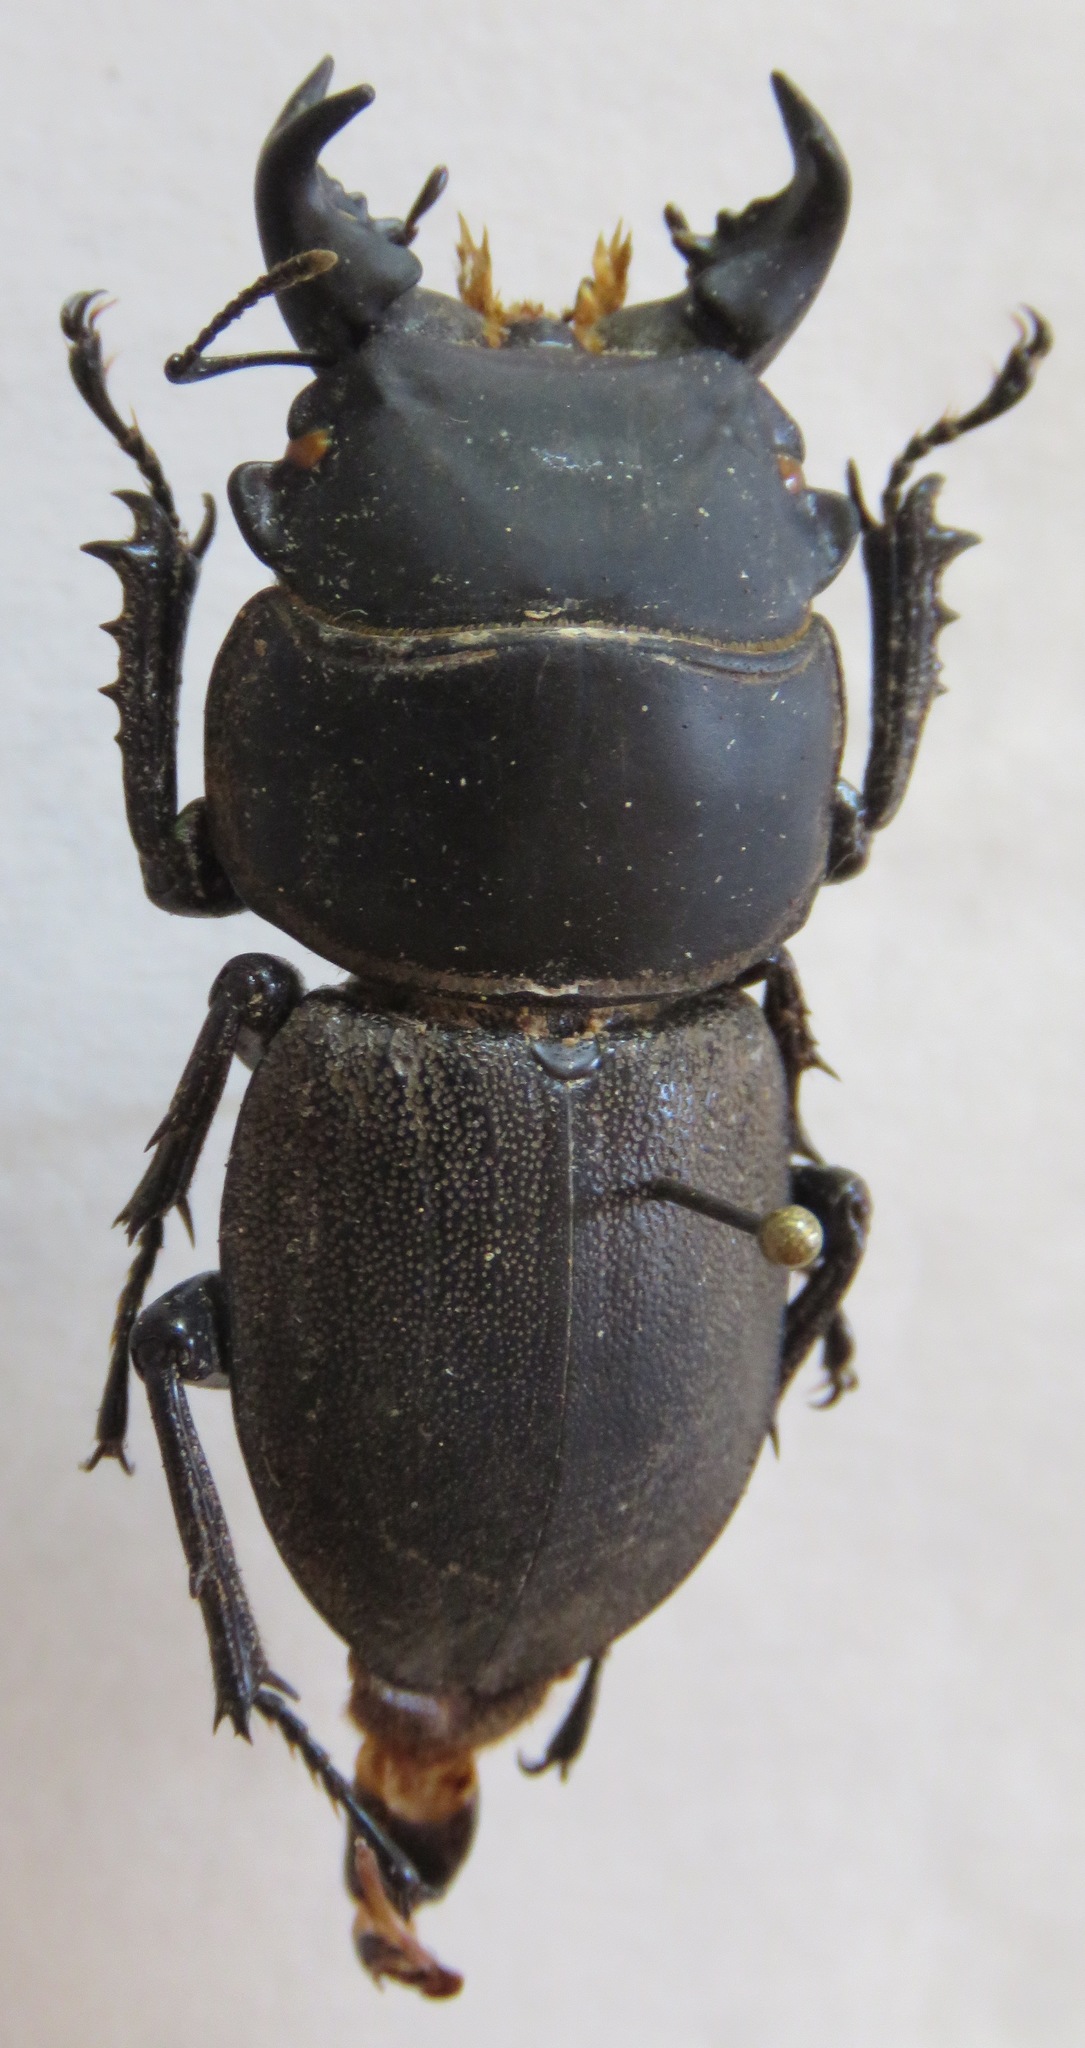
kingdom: Animalia
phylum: Arthropoda
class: Insecta
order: Coleoptera
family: Lucanidae
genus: Apterodorcus
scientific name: Apterodorcus bacchus
